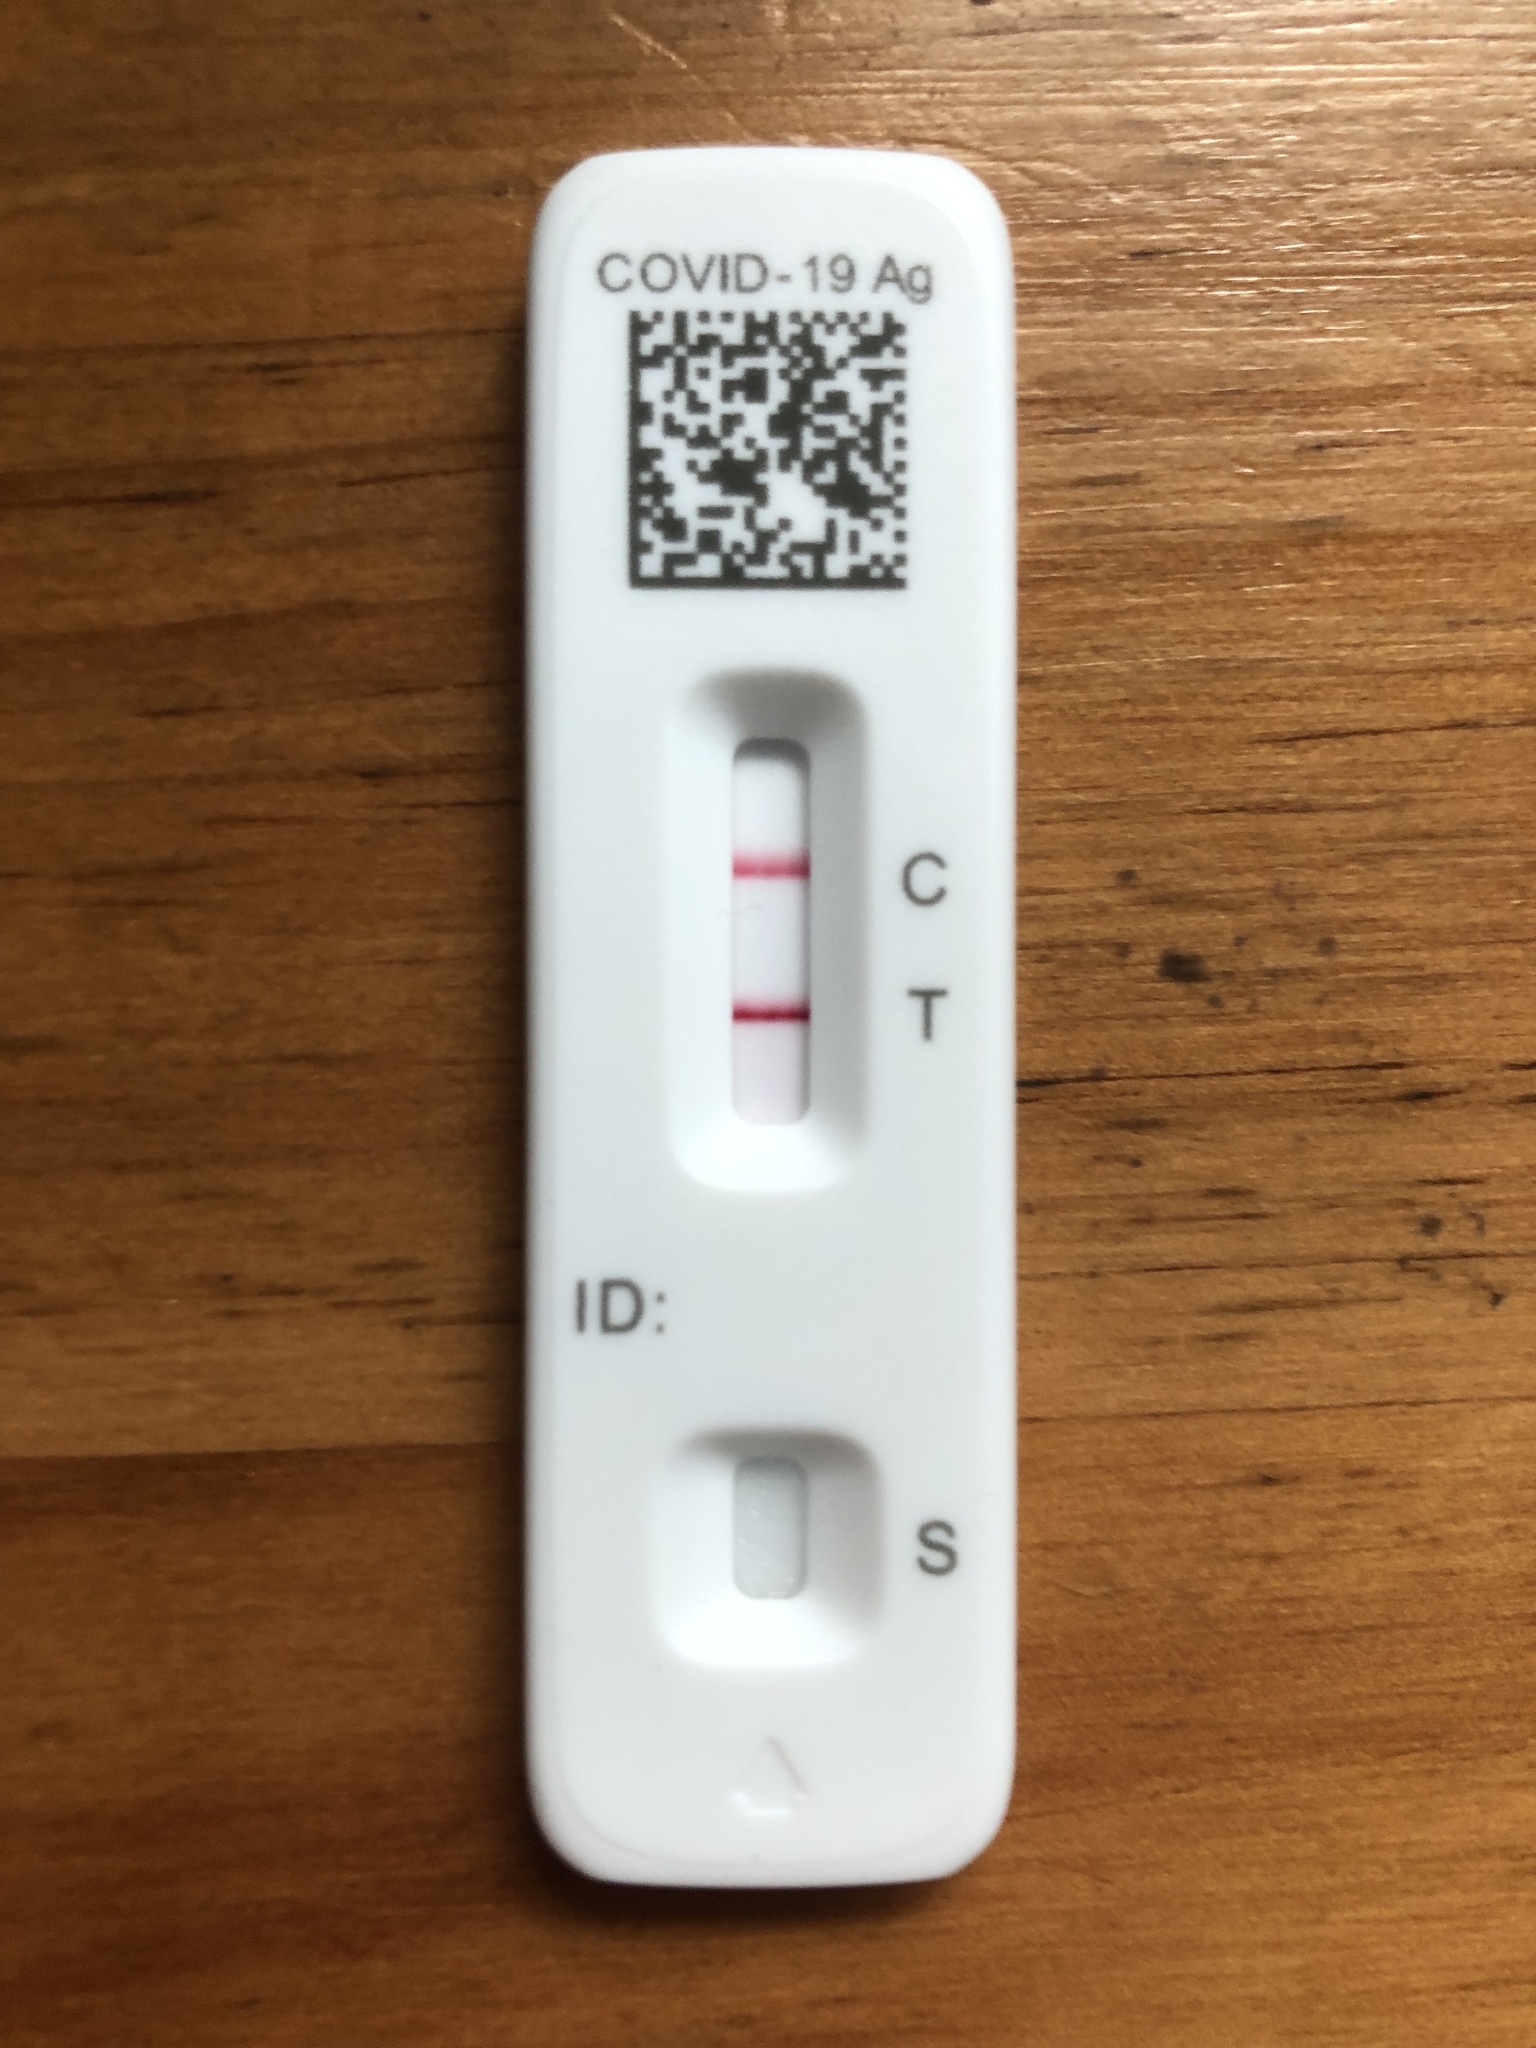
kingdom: Viruses
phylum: Pisuviricota
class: Pisoniviricetes
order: Nidovirales
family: Coronaviridae
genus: Betacoronavirus
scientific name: Betacoronavirus
